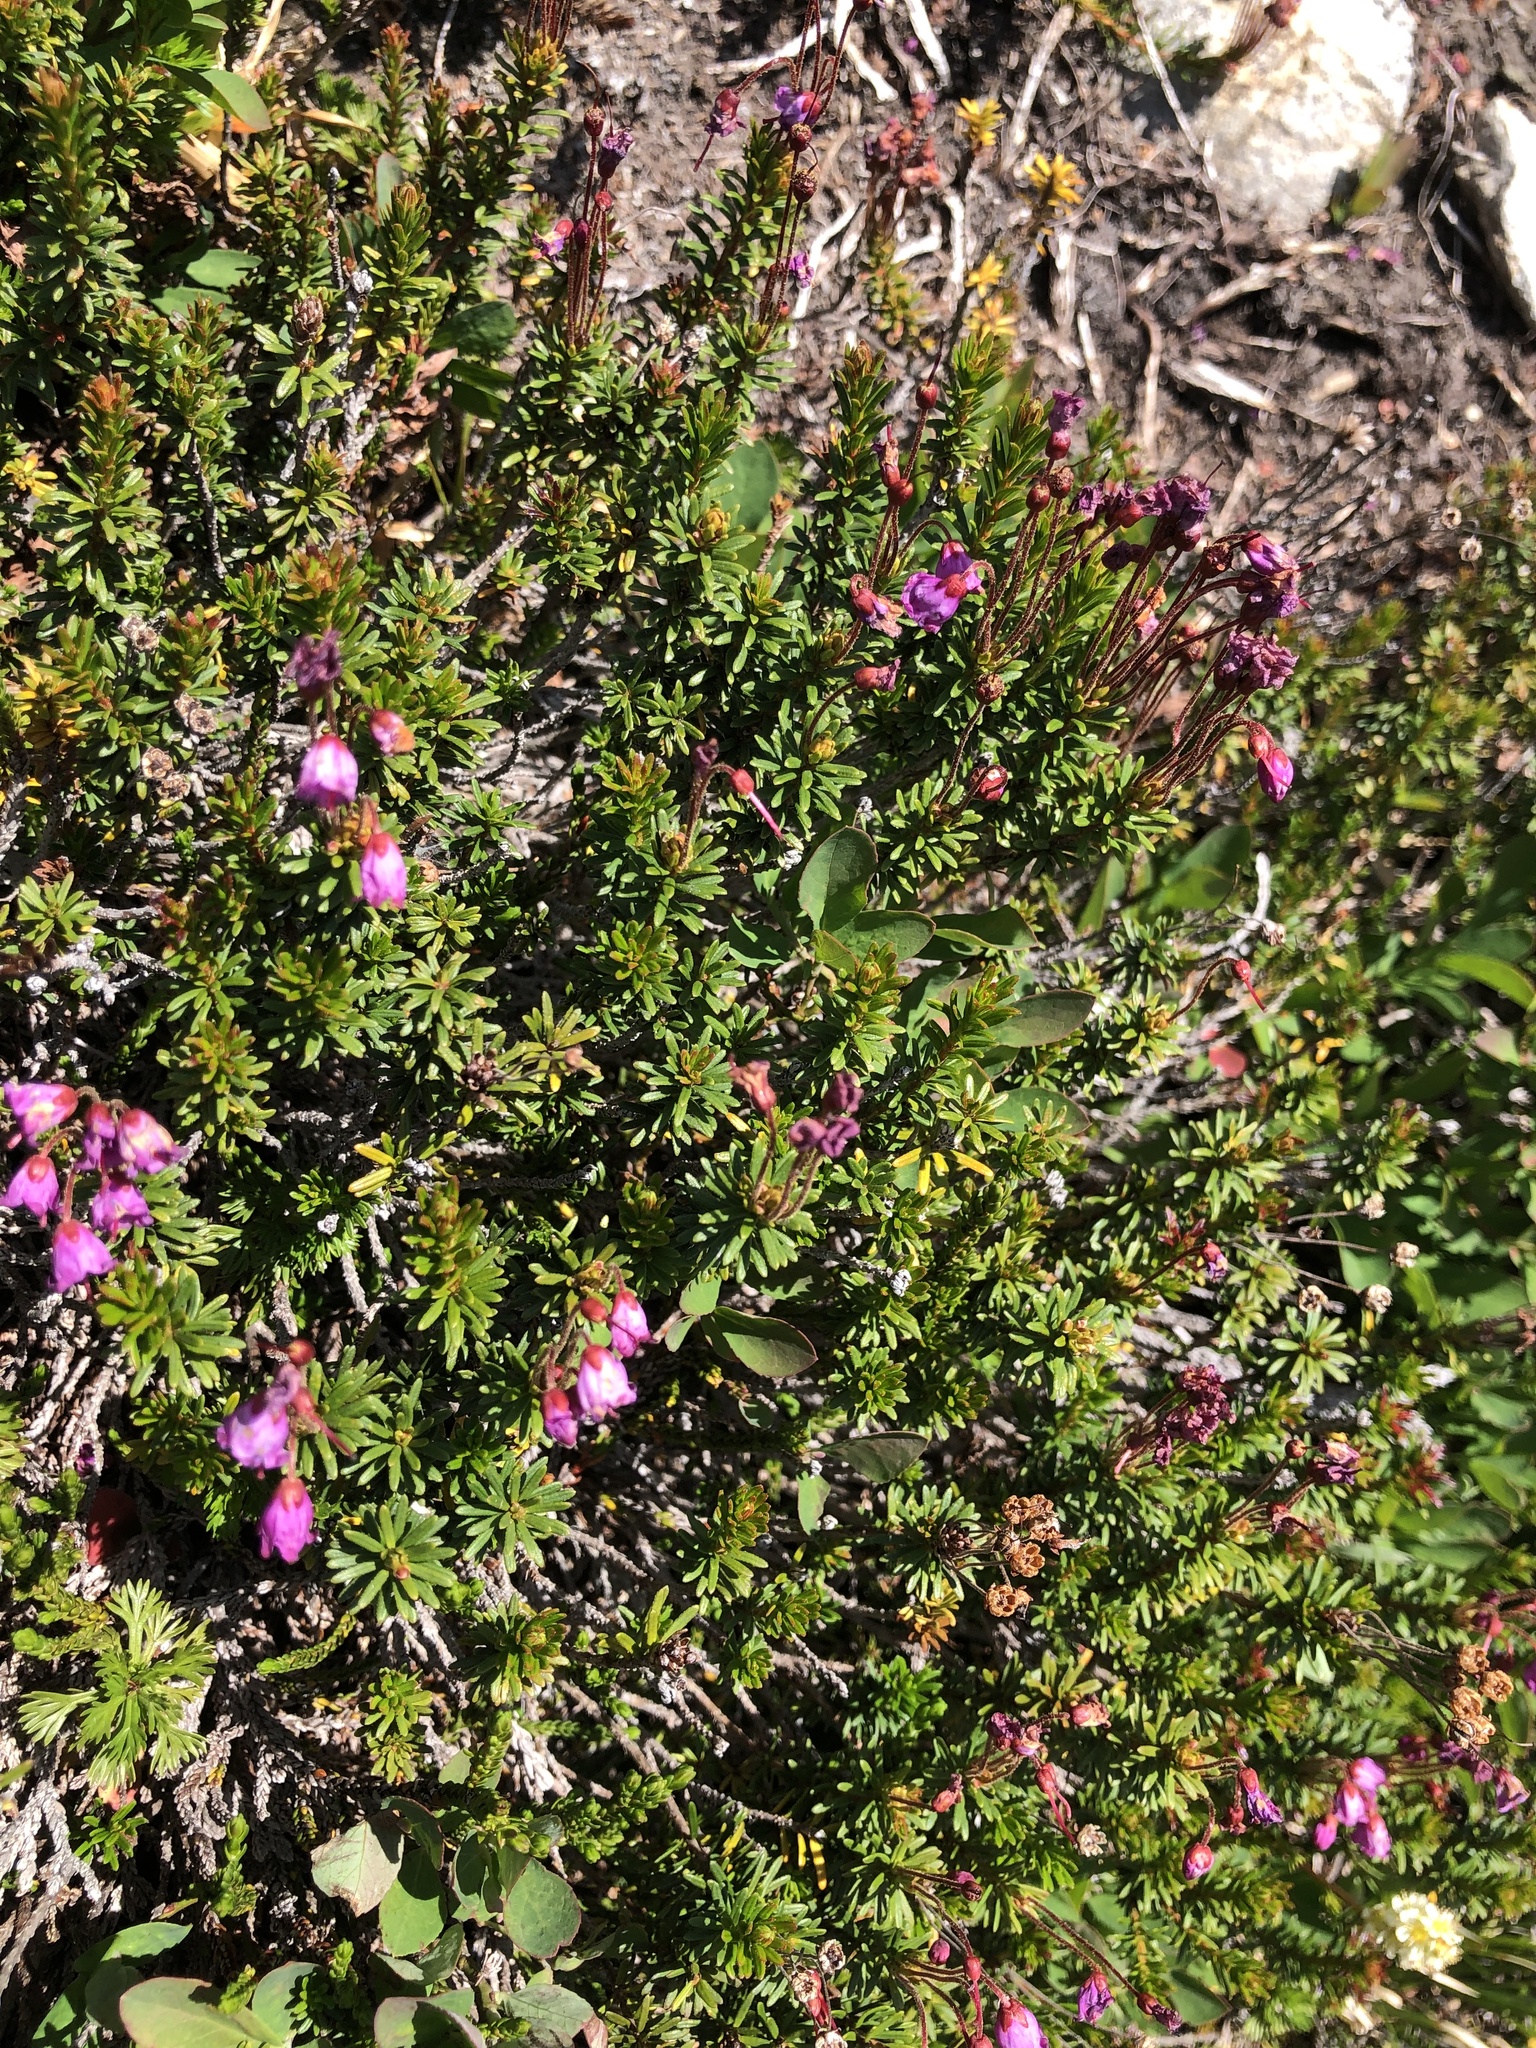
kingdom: Plantae
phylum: Tracheophyta
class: Magnoliopsida
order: Ericales
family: Ericaceae
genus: Phyllodoce
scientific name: Phyllodoce empetriformis
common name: Pink mountain heather
